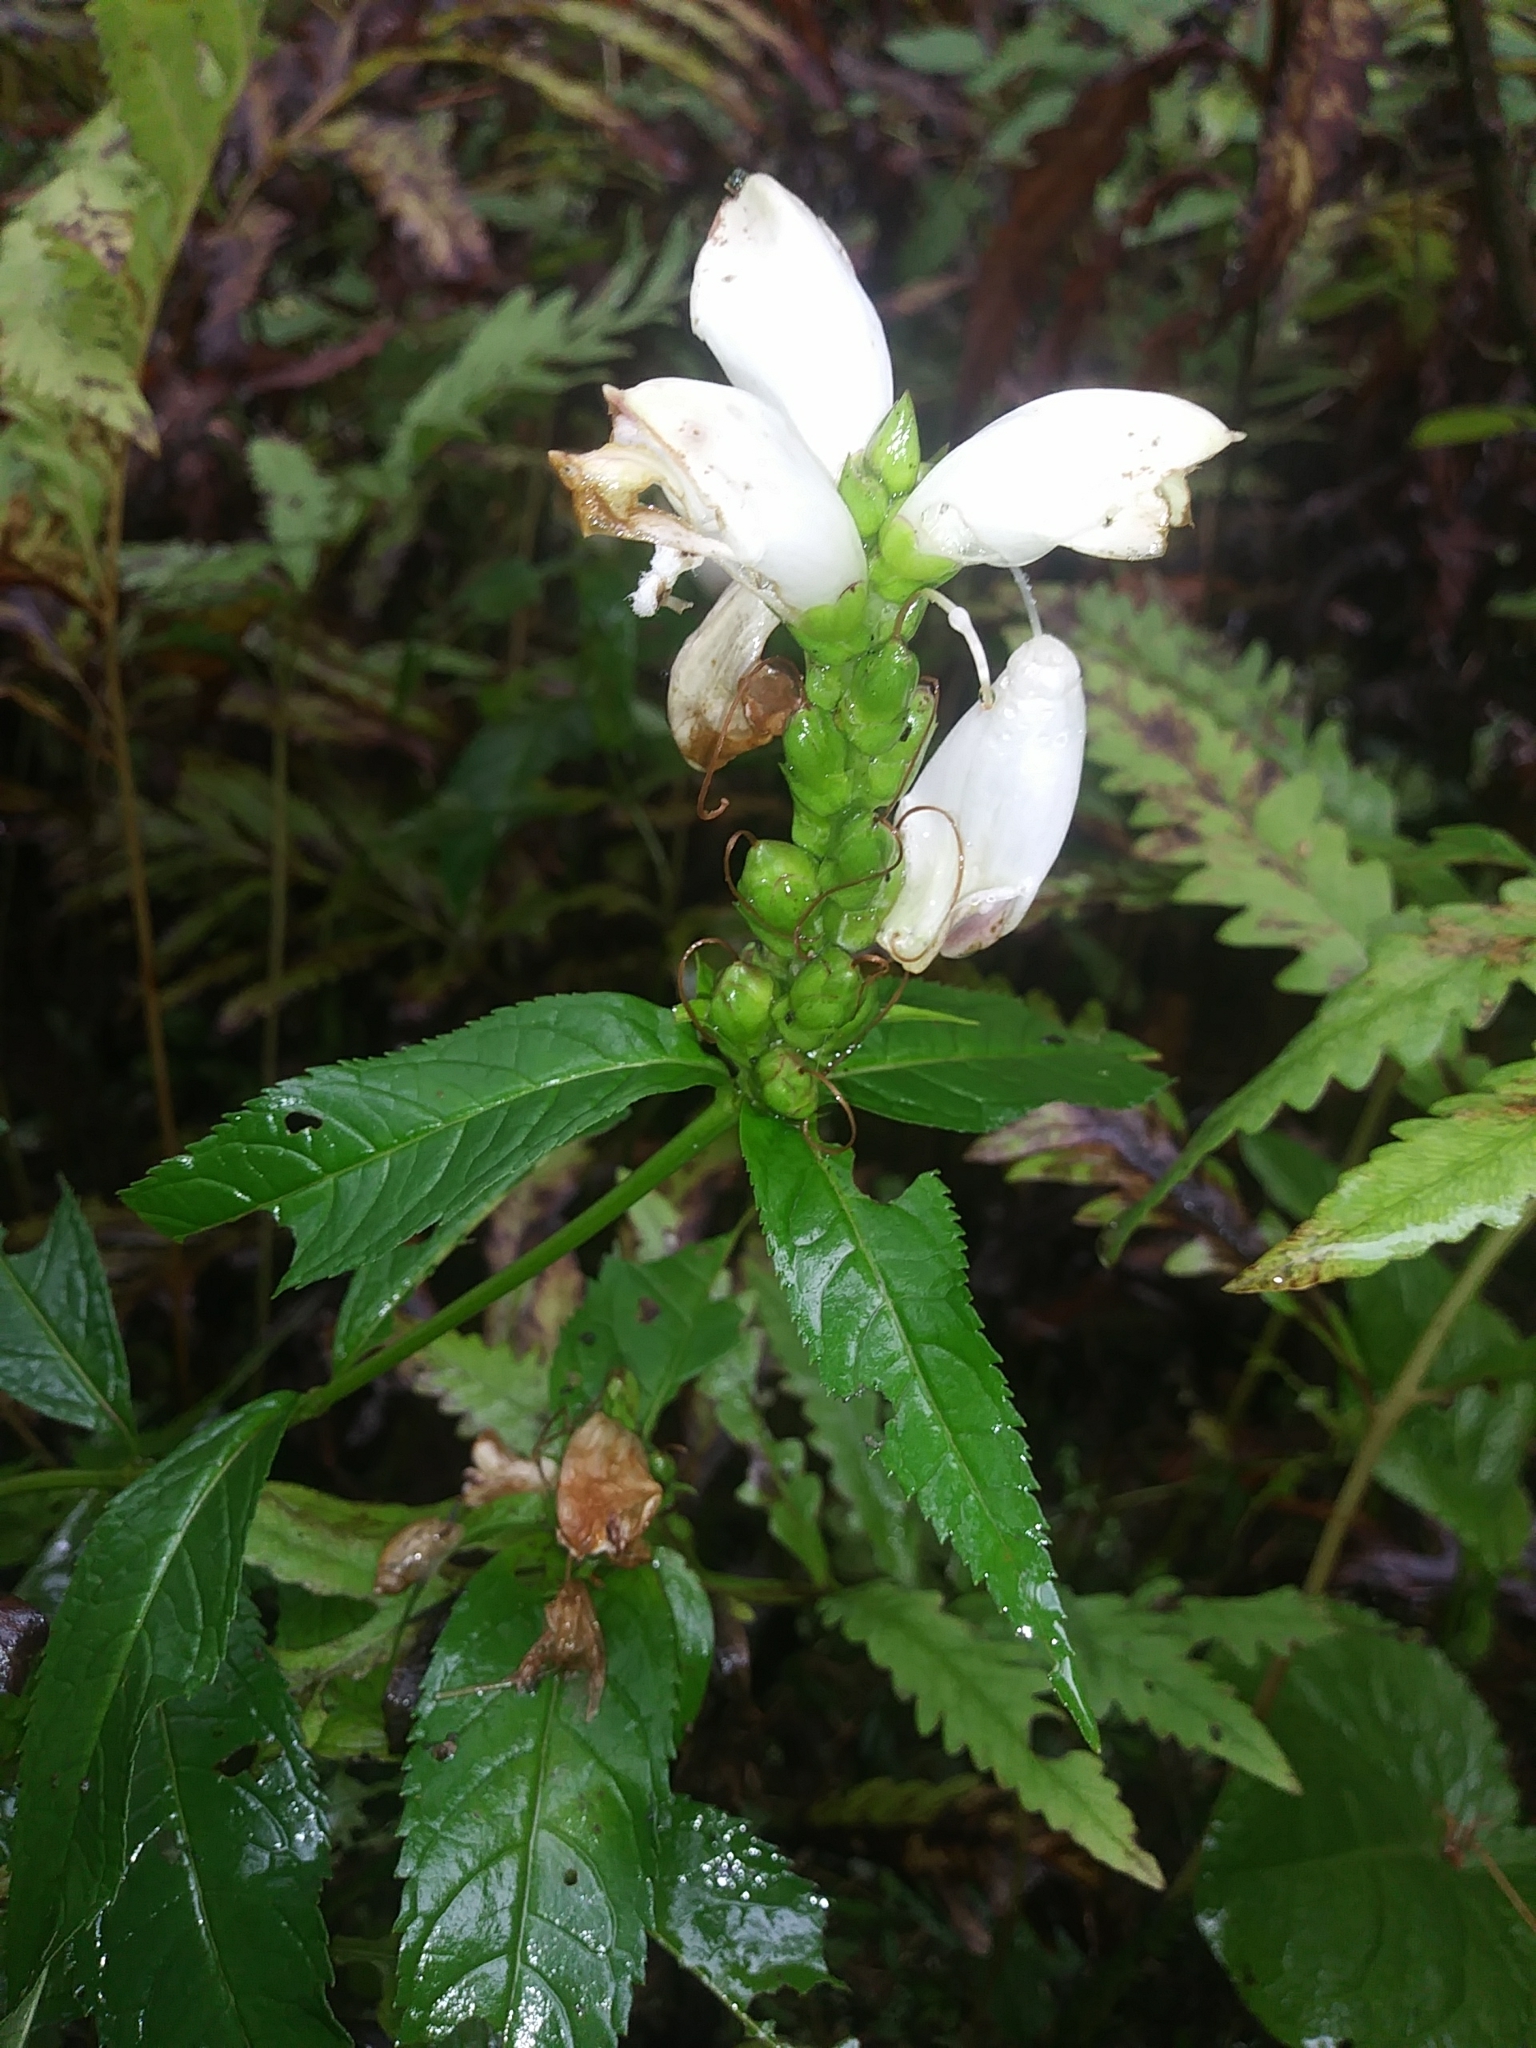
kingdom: Plantae
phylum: Tracheophyta
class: Magnoliopsida
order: Lamiales
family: Plantaginaceae
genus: Chelone
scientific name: Chelone glabra
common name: Snakehead
